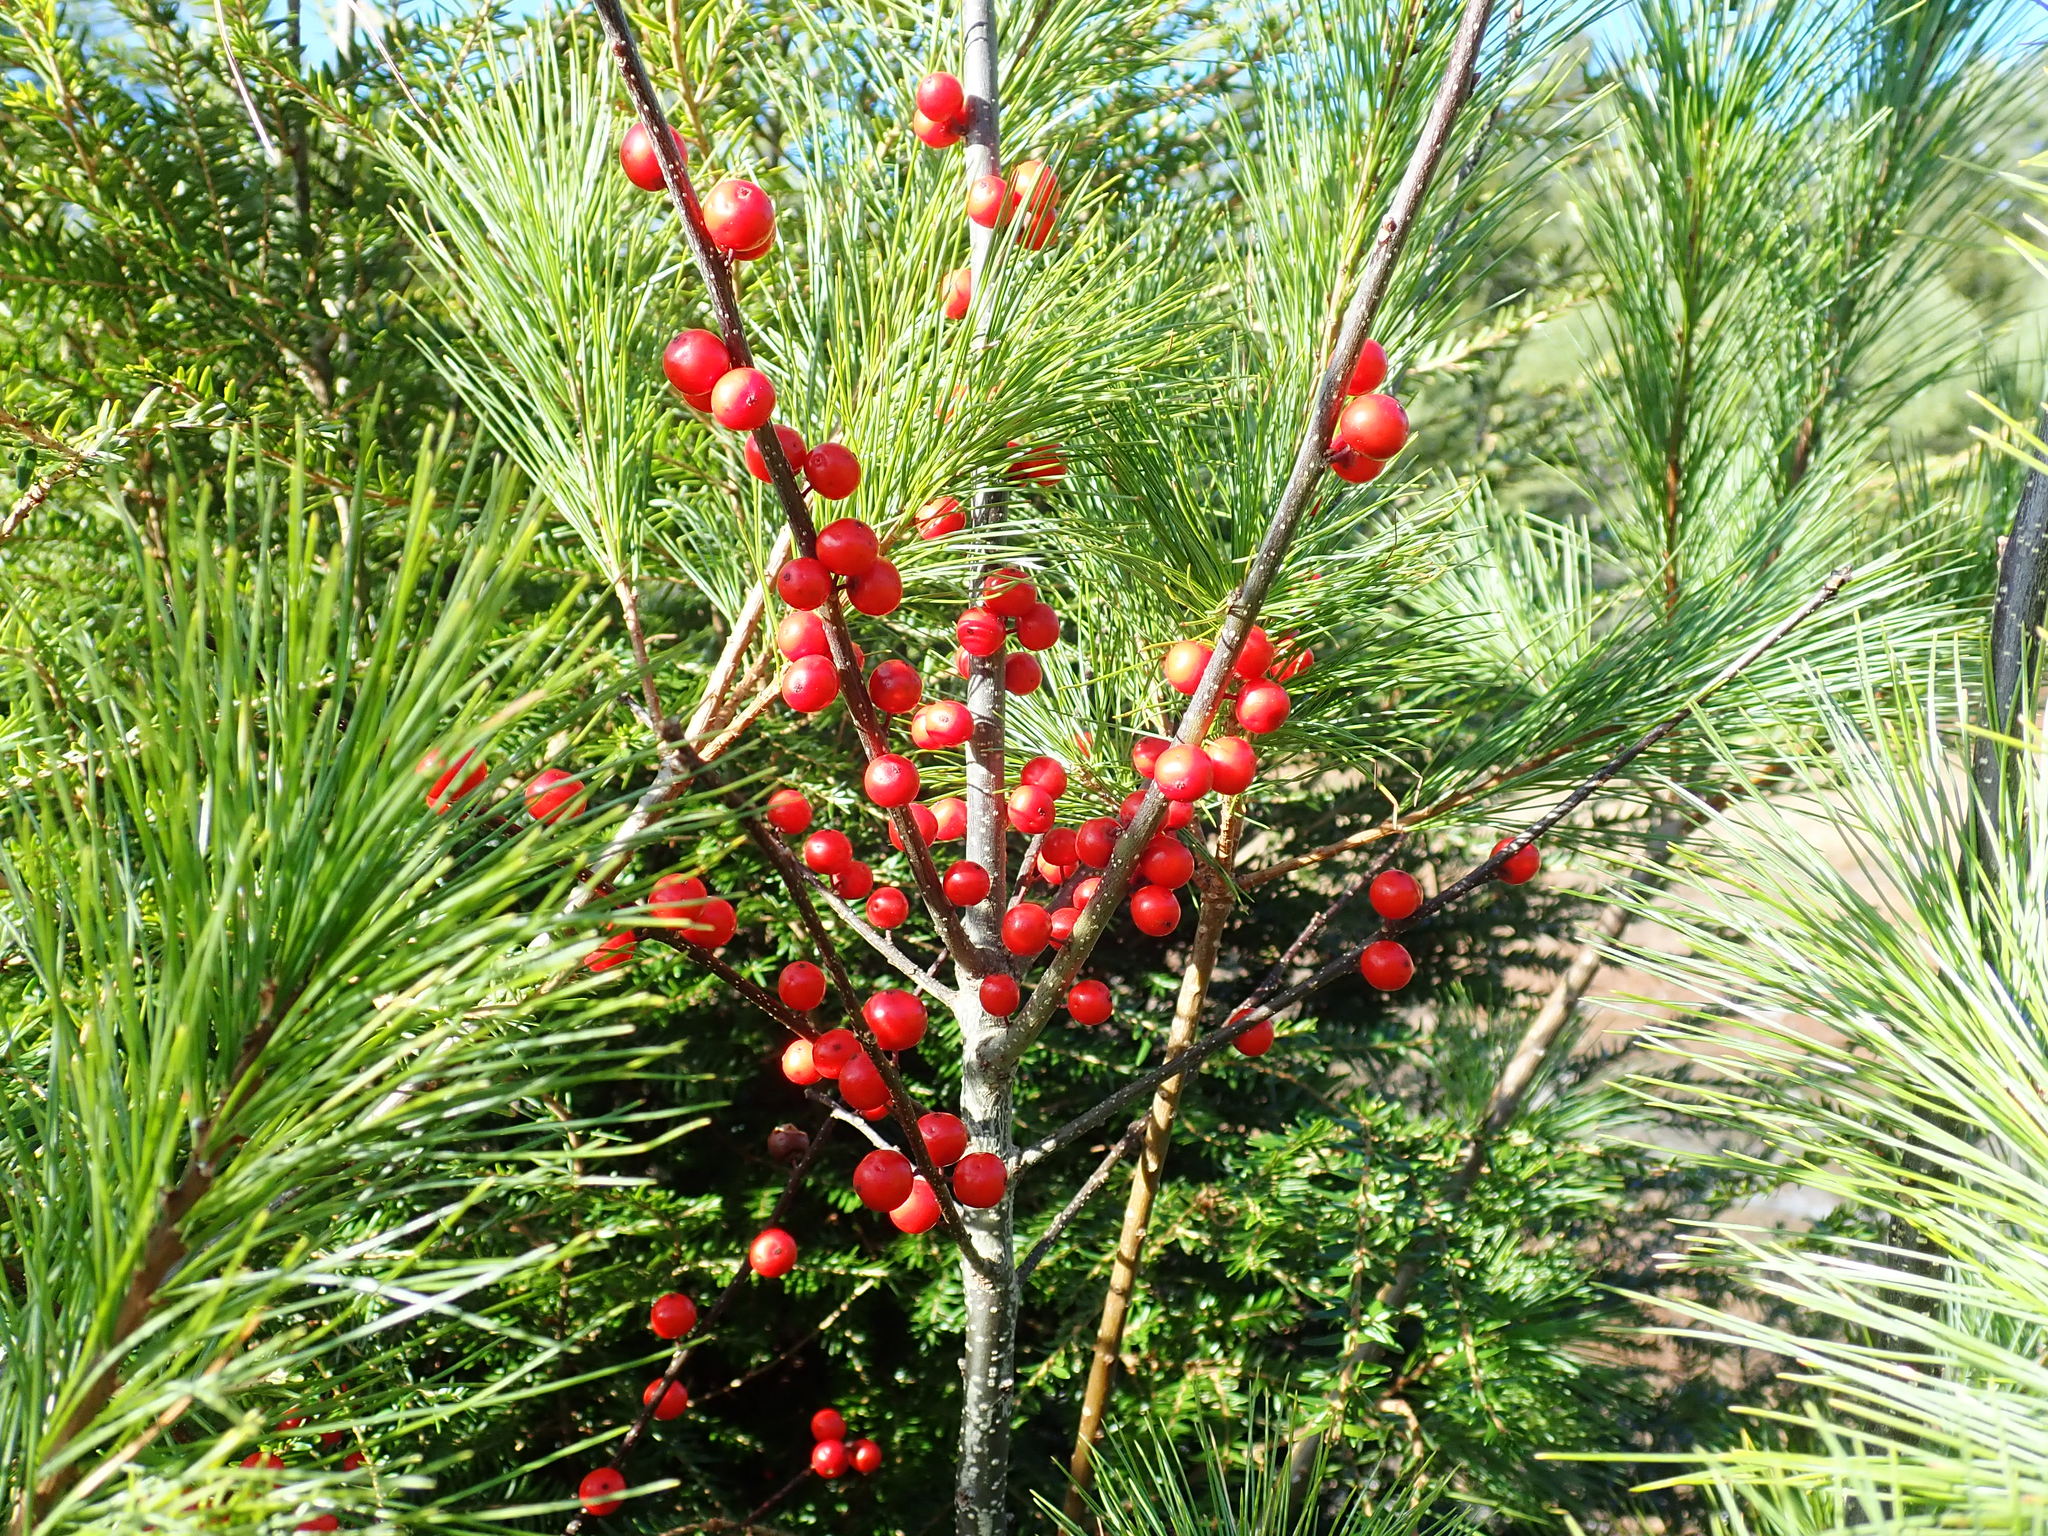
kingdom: Plantae
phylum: Tracheophyta
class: Magnoliopsida
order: Aquifoliales
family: Aquifoliaceae
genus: Ilex
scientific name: Ilex verticillata
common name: Virginia winterberry
